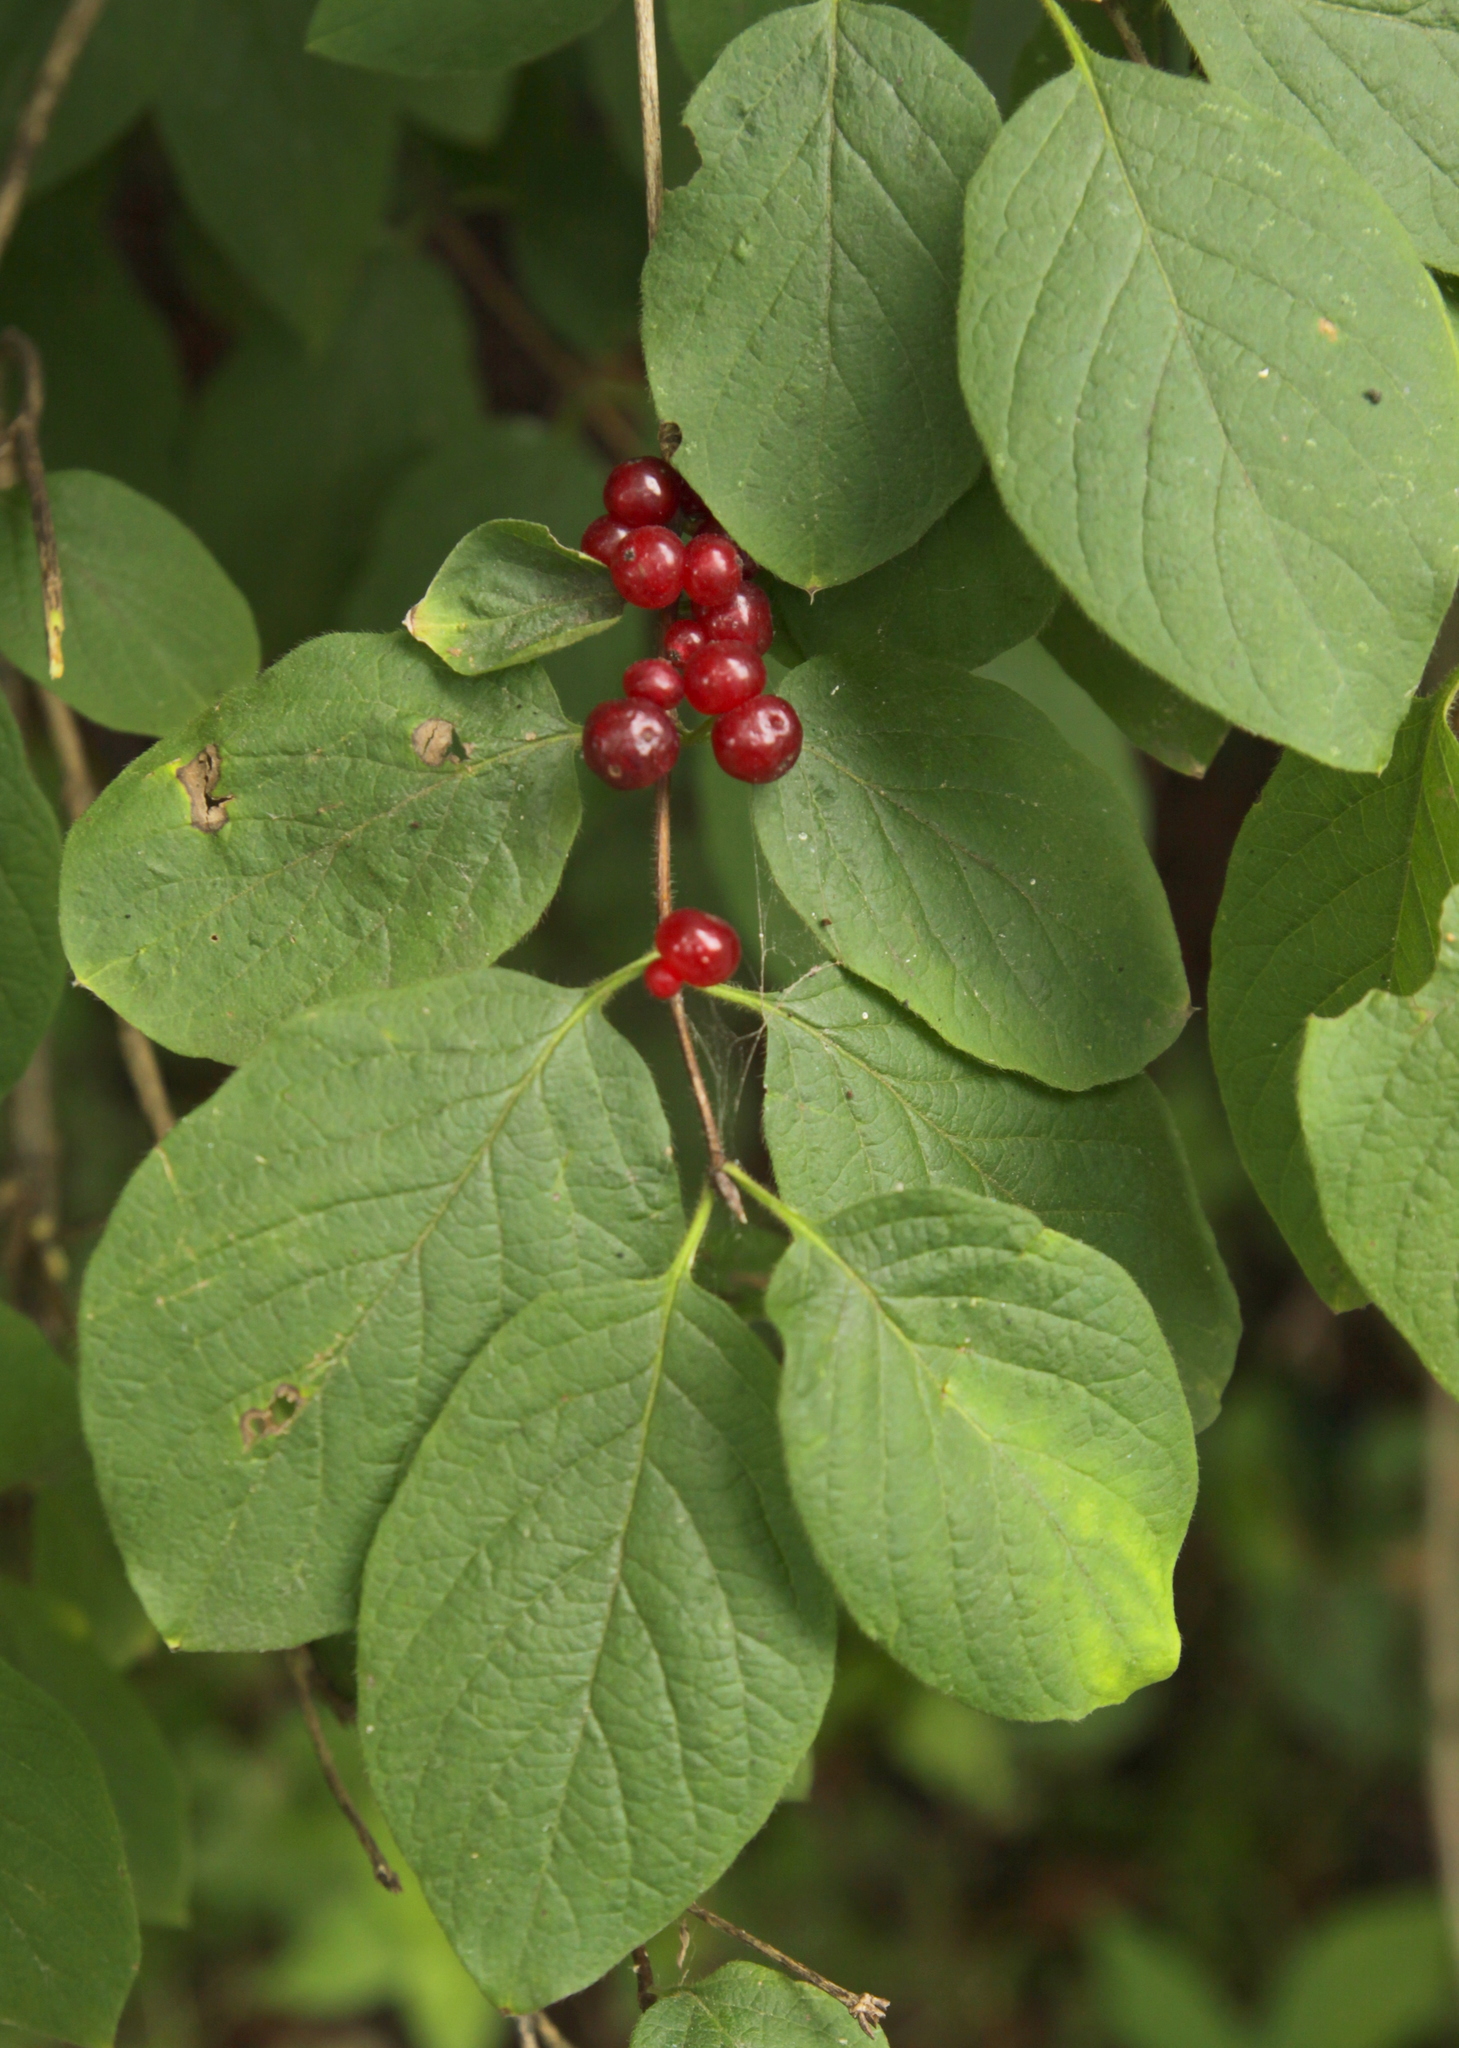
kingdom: Plantae
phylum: Tracheophyta
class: Magnoliopsida
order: Dipsacales
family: Caprifoliaceae
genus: Lonicera
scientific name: Lonicera xylosteum
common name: Fly honeysuckle
